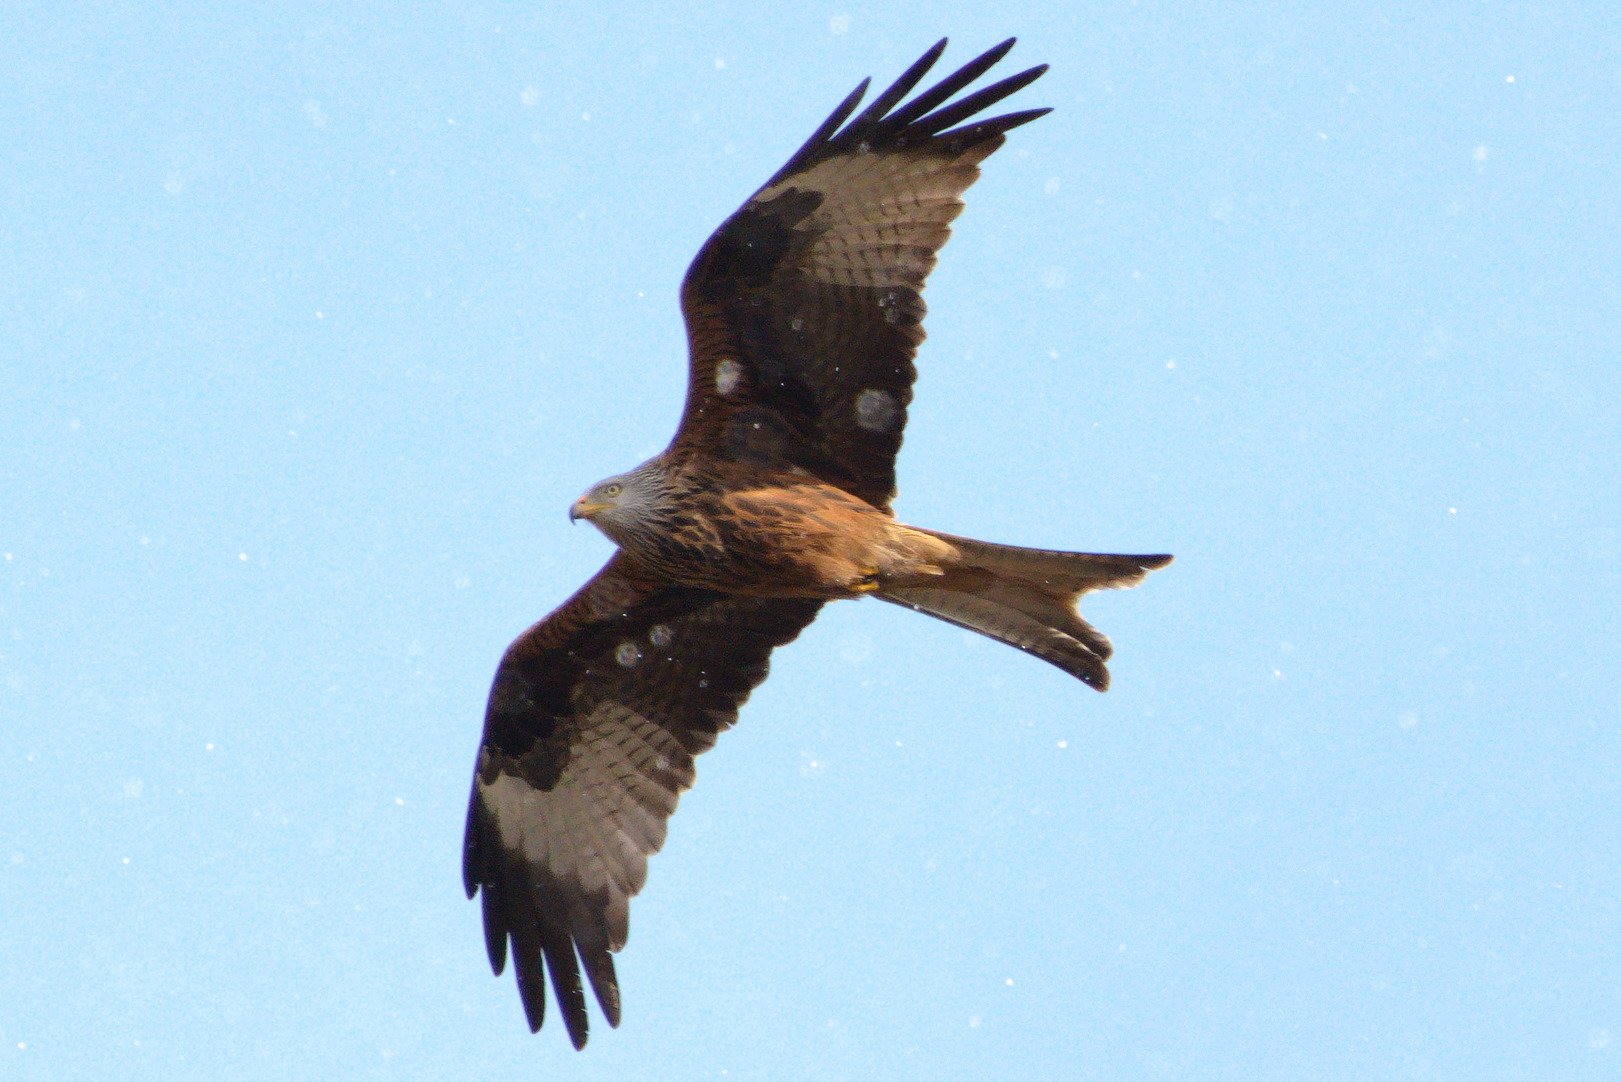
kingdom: Animalia
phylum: Chordata
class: Aves
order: Accipitriformes
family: Accipitridae
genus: Milvus
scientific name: Milvus milvus
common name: Red kite
